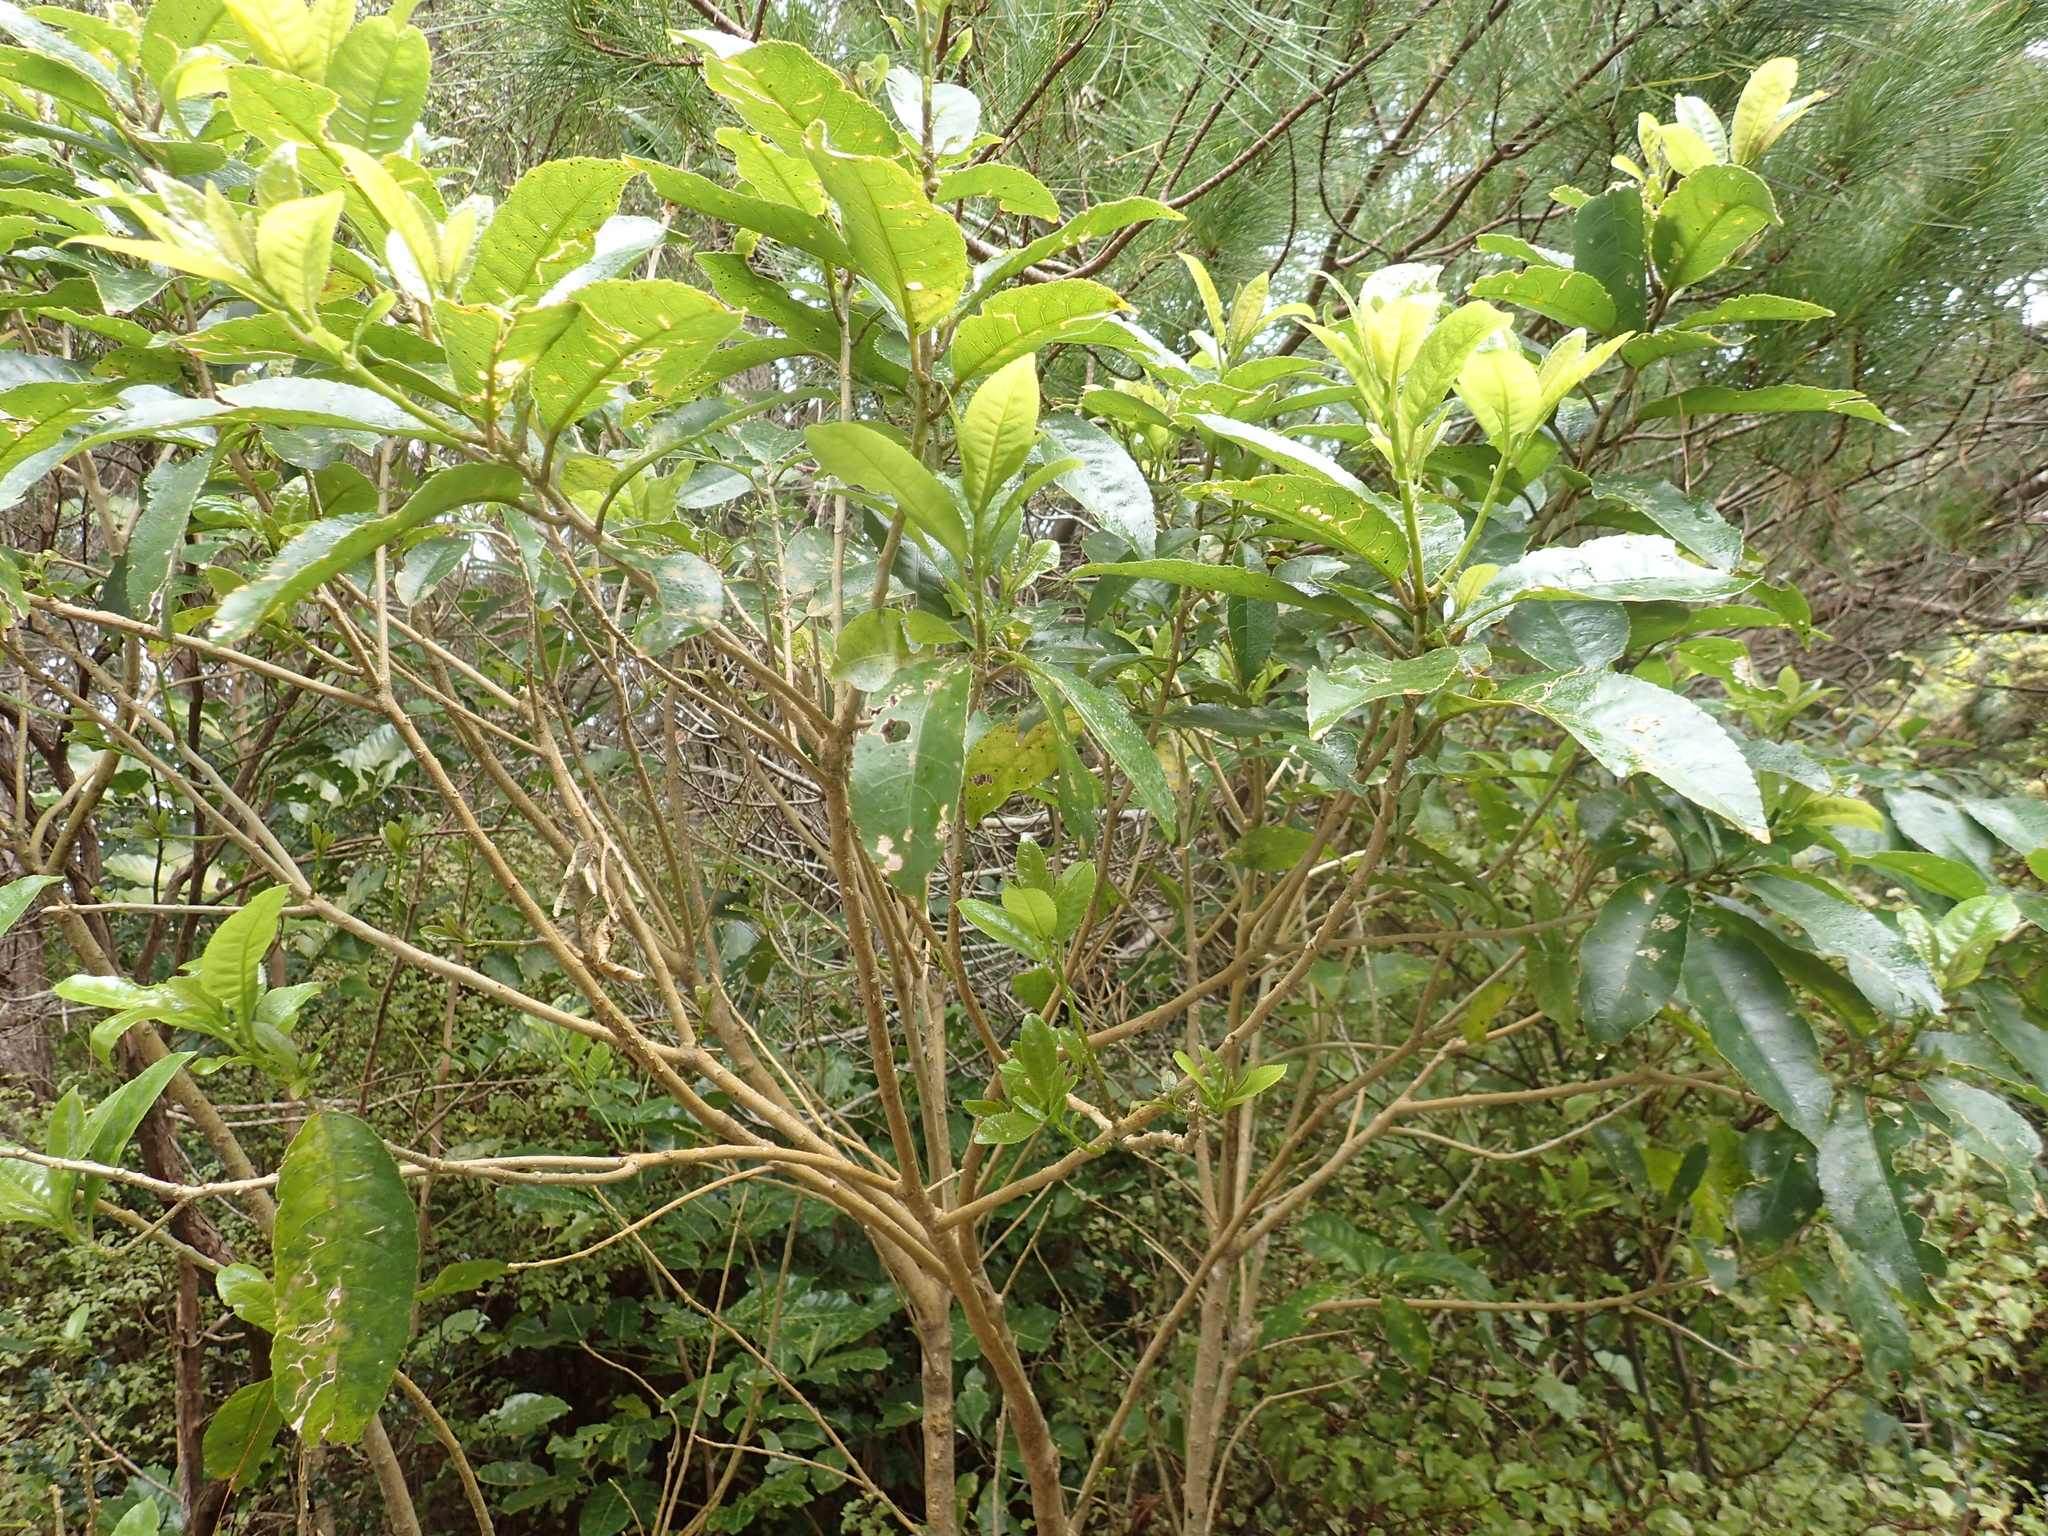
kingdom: Plantae
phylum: Tracheophyta
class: Magnoliopsida
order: Malpighiales
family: Violaceae
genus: Melicytus
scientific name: Melicytus ramiflorus
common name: Mahoe
